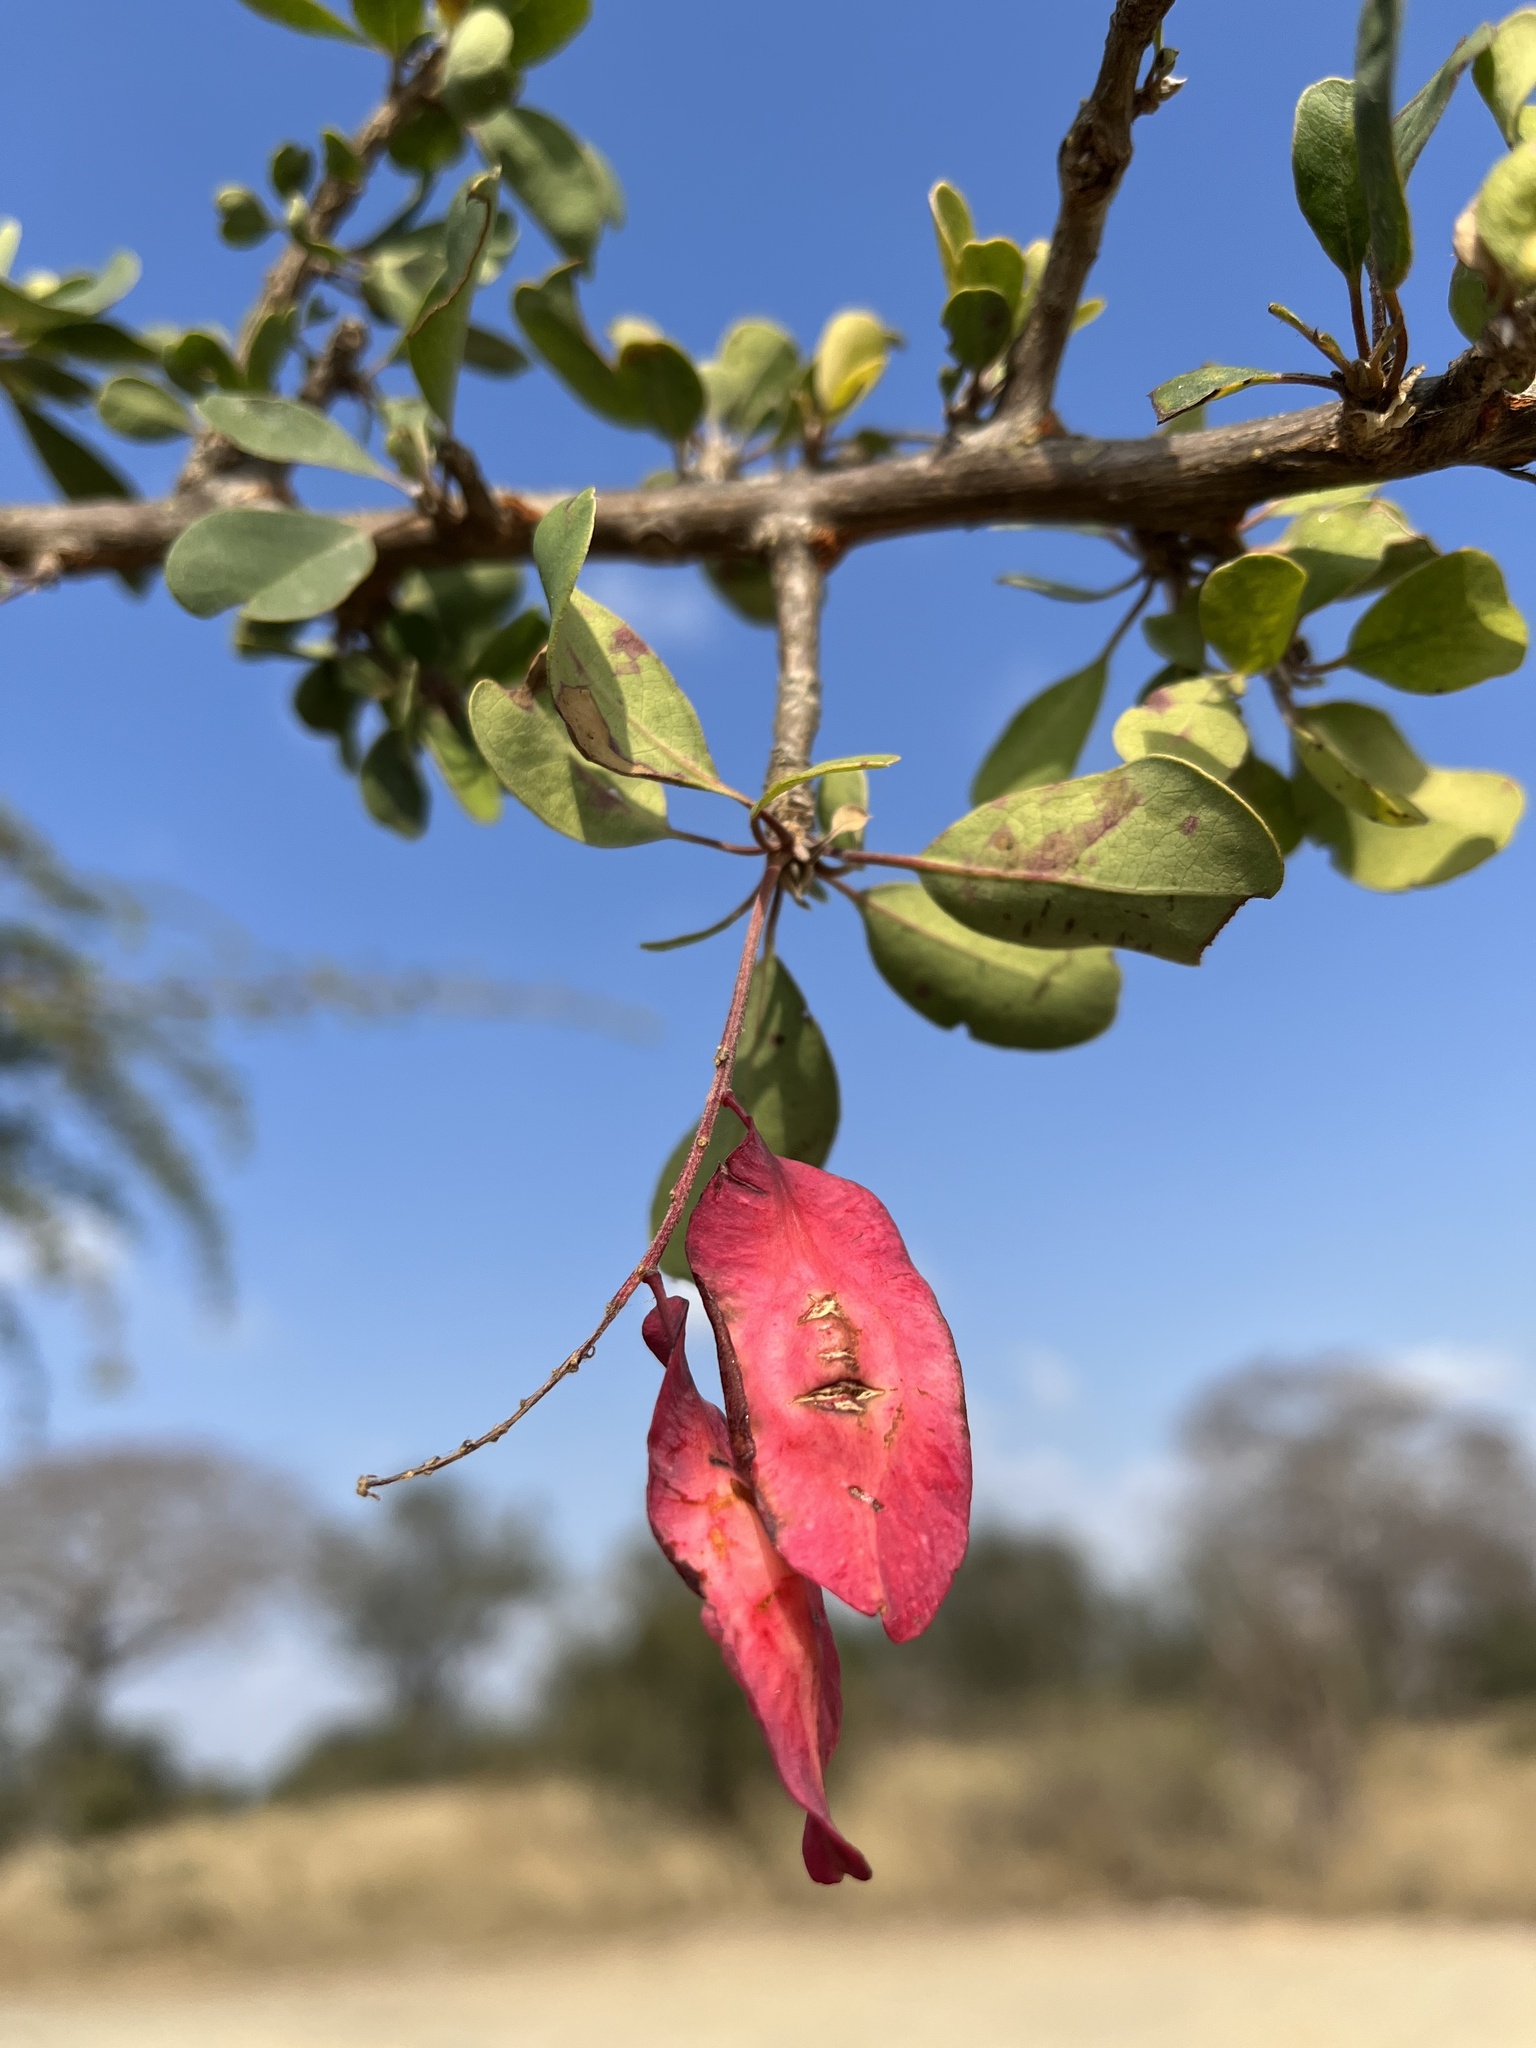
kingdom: Plantae
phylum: Tracheophyta
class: Magnoliopsida
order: Myrtales
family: Combretaceae
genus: Terminalia
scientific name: Terminalia prunioides
